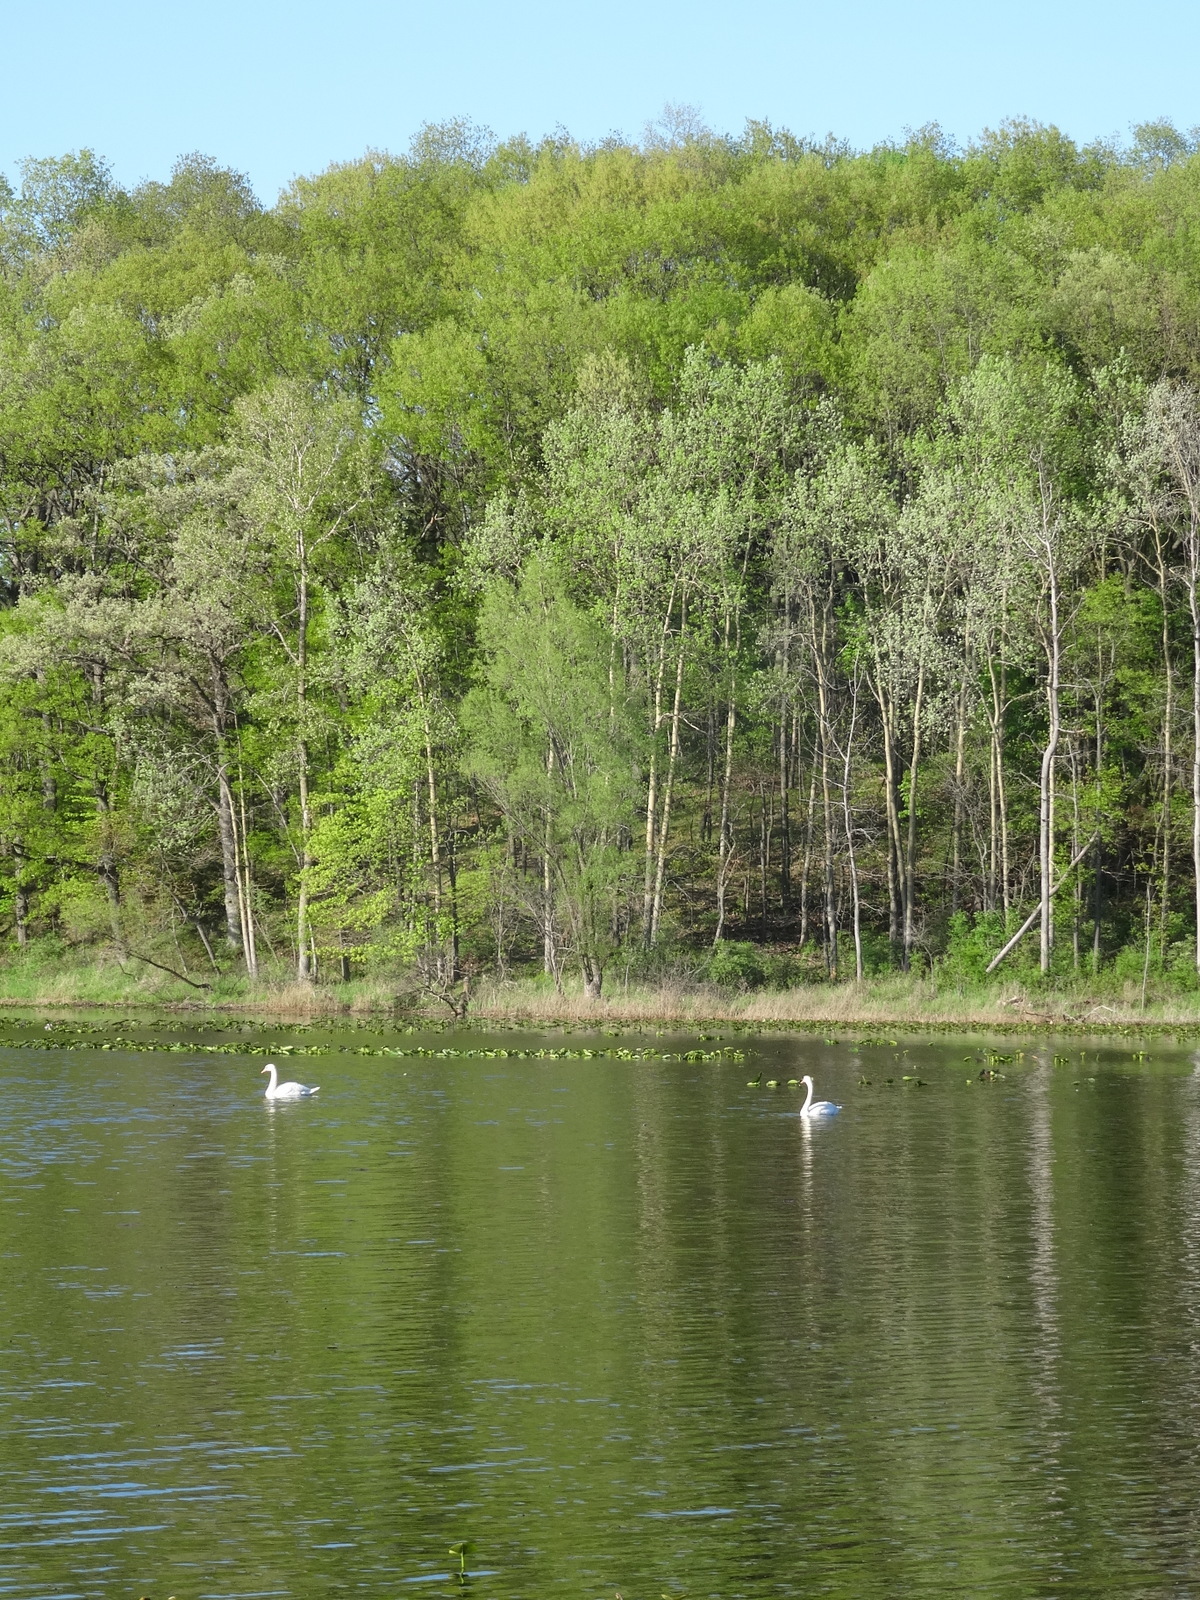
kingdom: Animalia
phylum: Chordata
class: Aves
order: Anseriformes
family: Anatidae
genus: Cygnus
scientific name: Cygnus olor
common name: Mute swan
